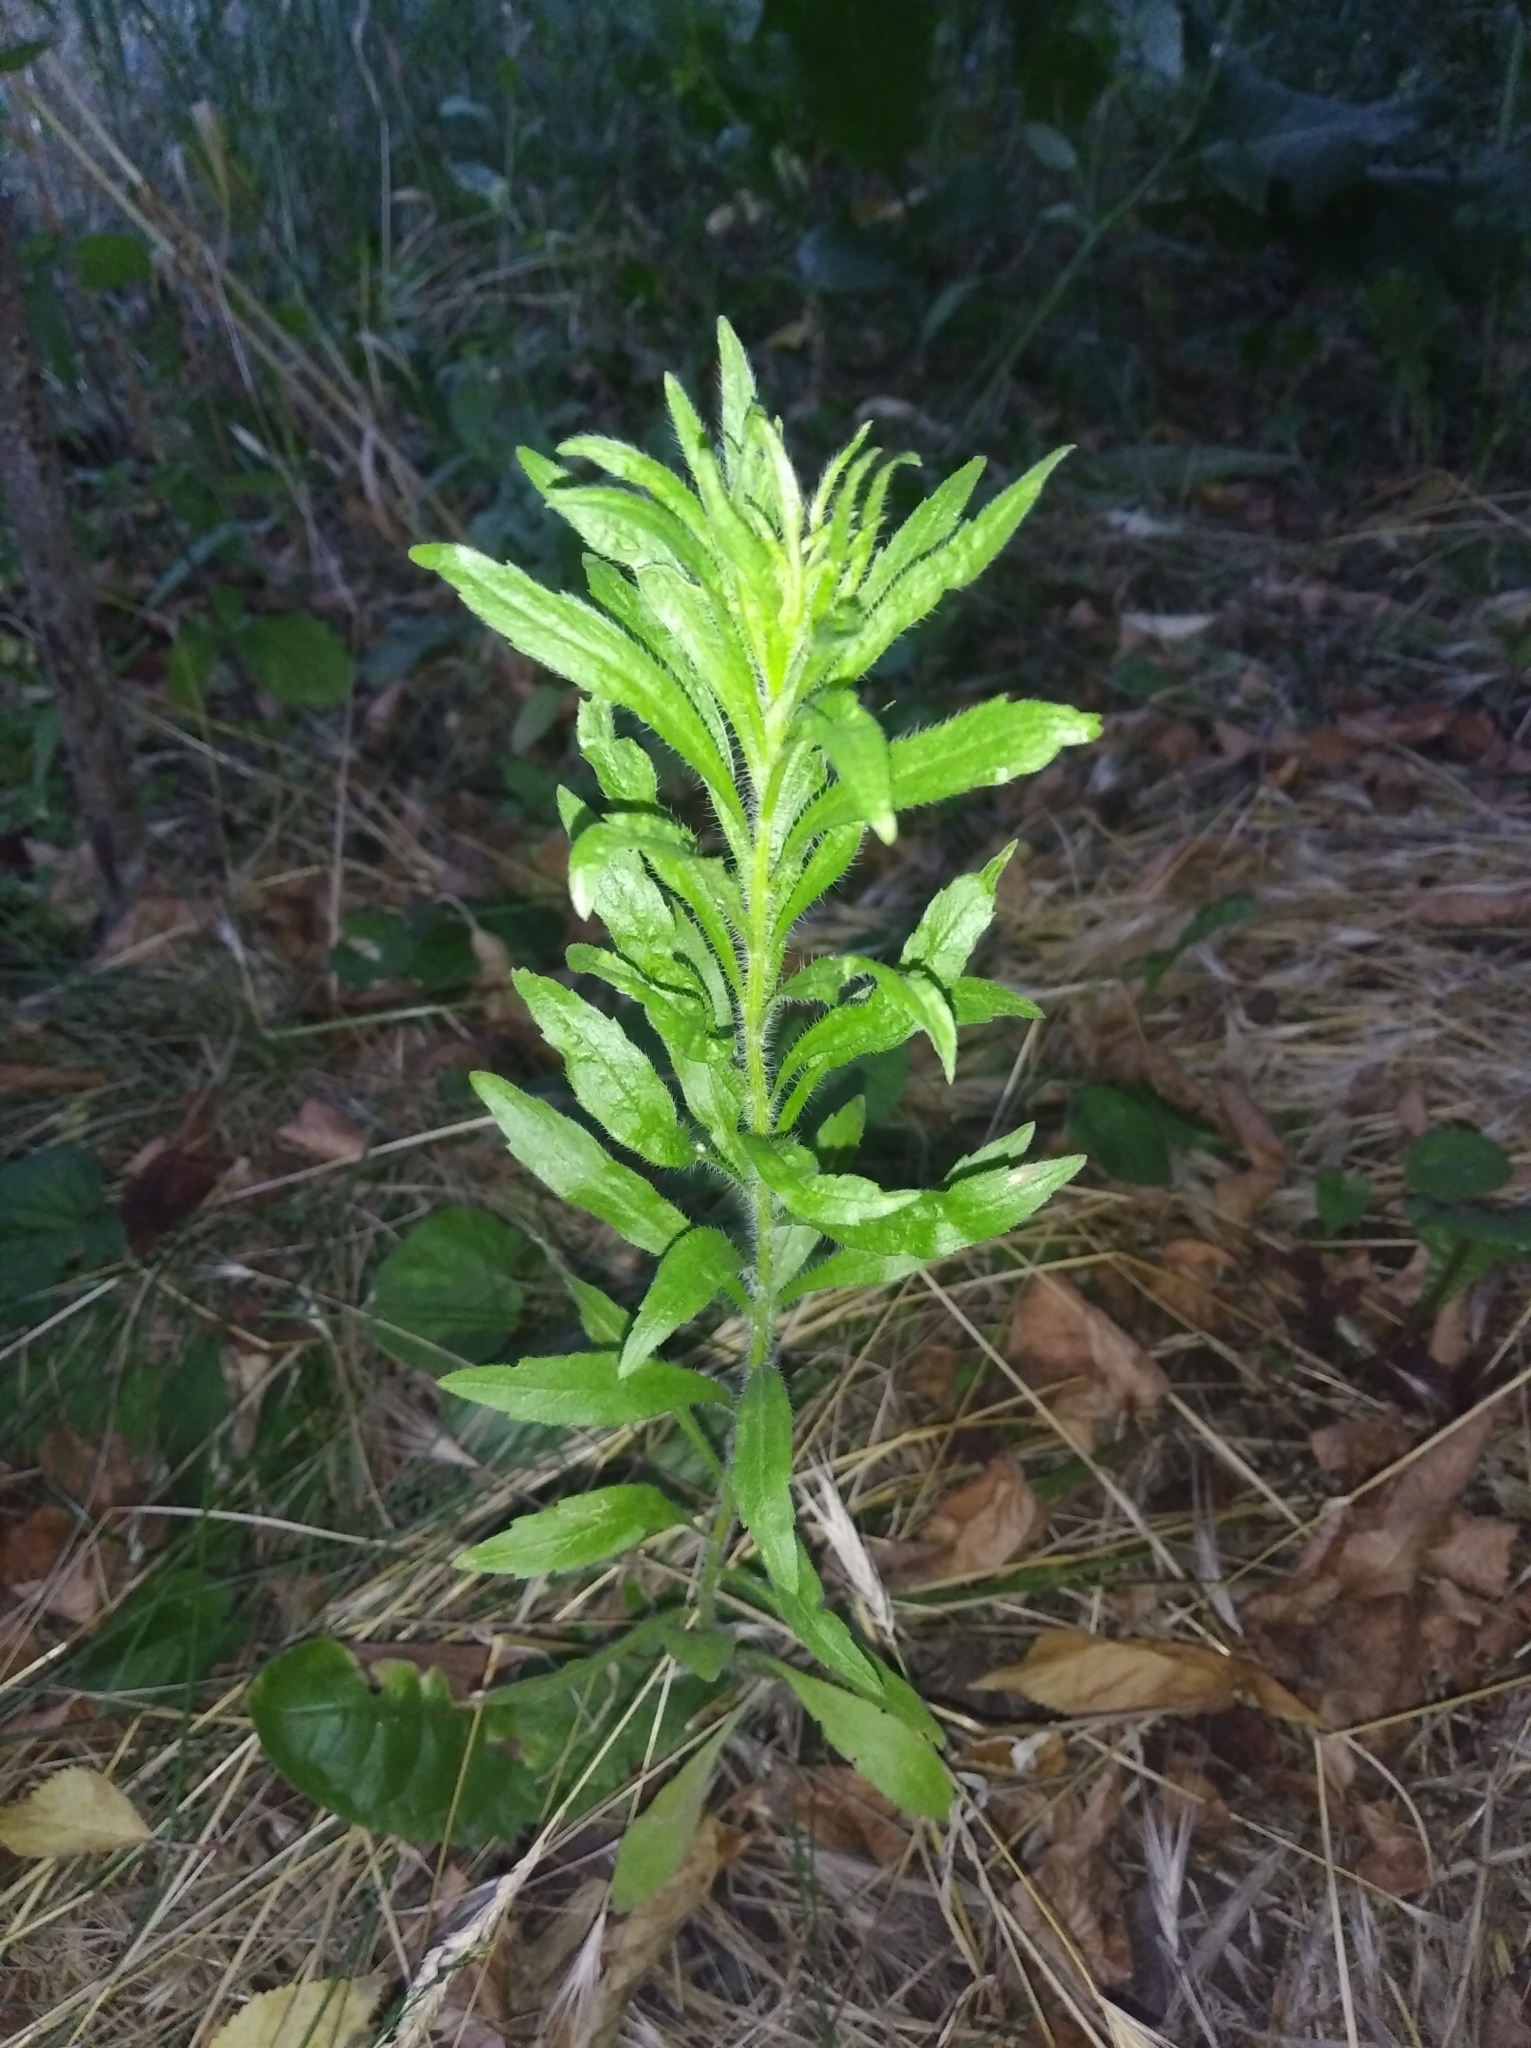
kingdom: Plantae
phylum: Tracheophyta
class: Magnoliopsida
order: Asterales
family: Asteraceae
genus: Erigeron
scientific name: Erigeron canadensis
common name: Canadian fleabane
